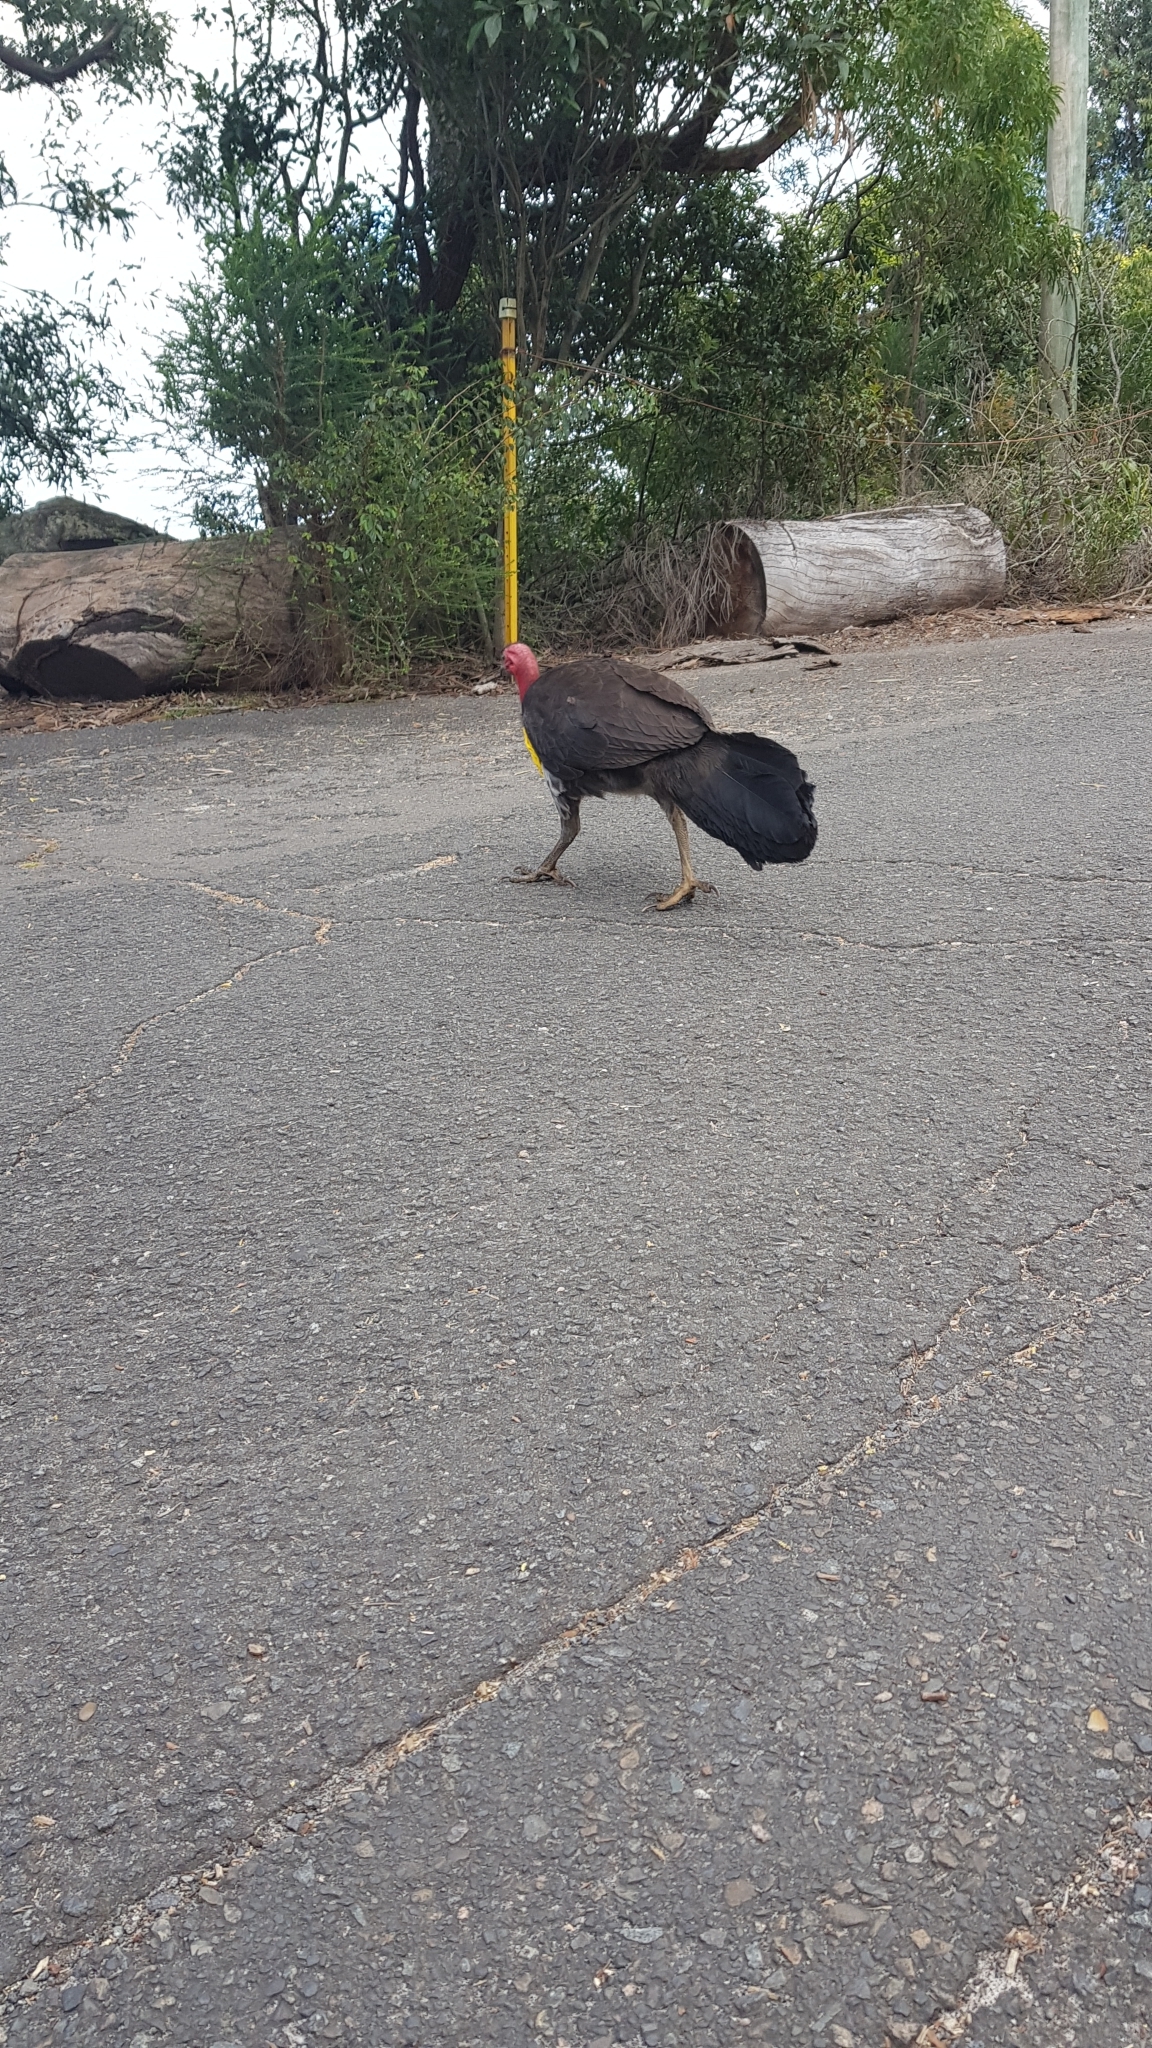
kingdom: Animalia
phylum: Chordata
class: Aves
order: Galliformes
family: Megapodiidae
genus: Alectura
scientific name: Alectura lathami
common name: Australian brushturkey
